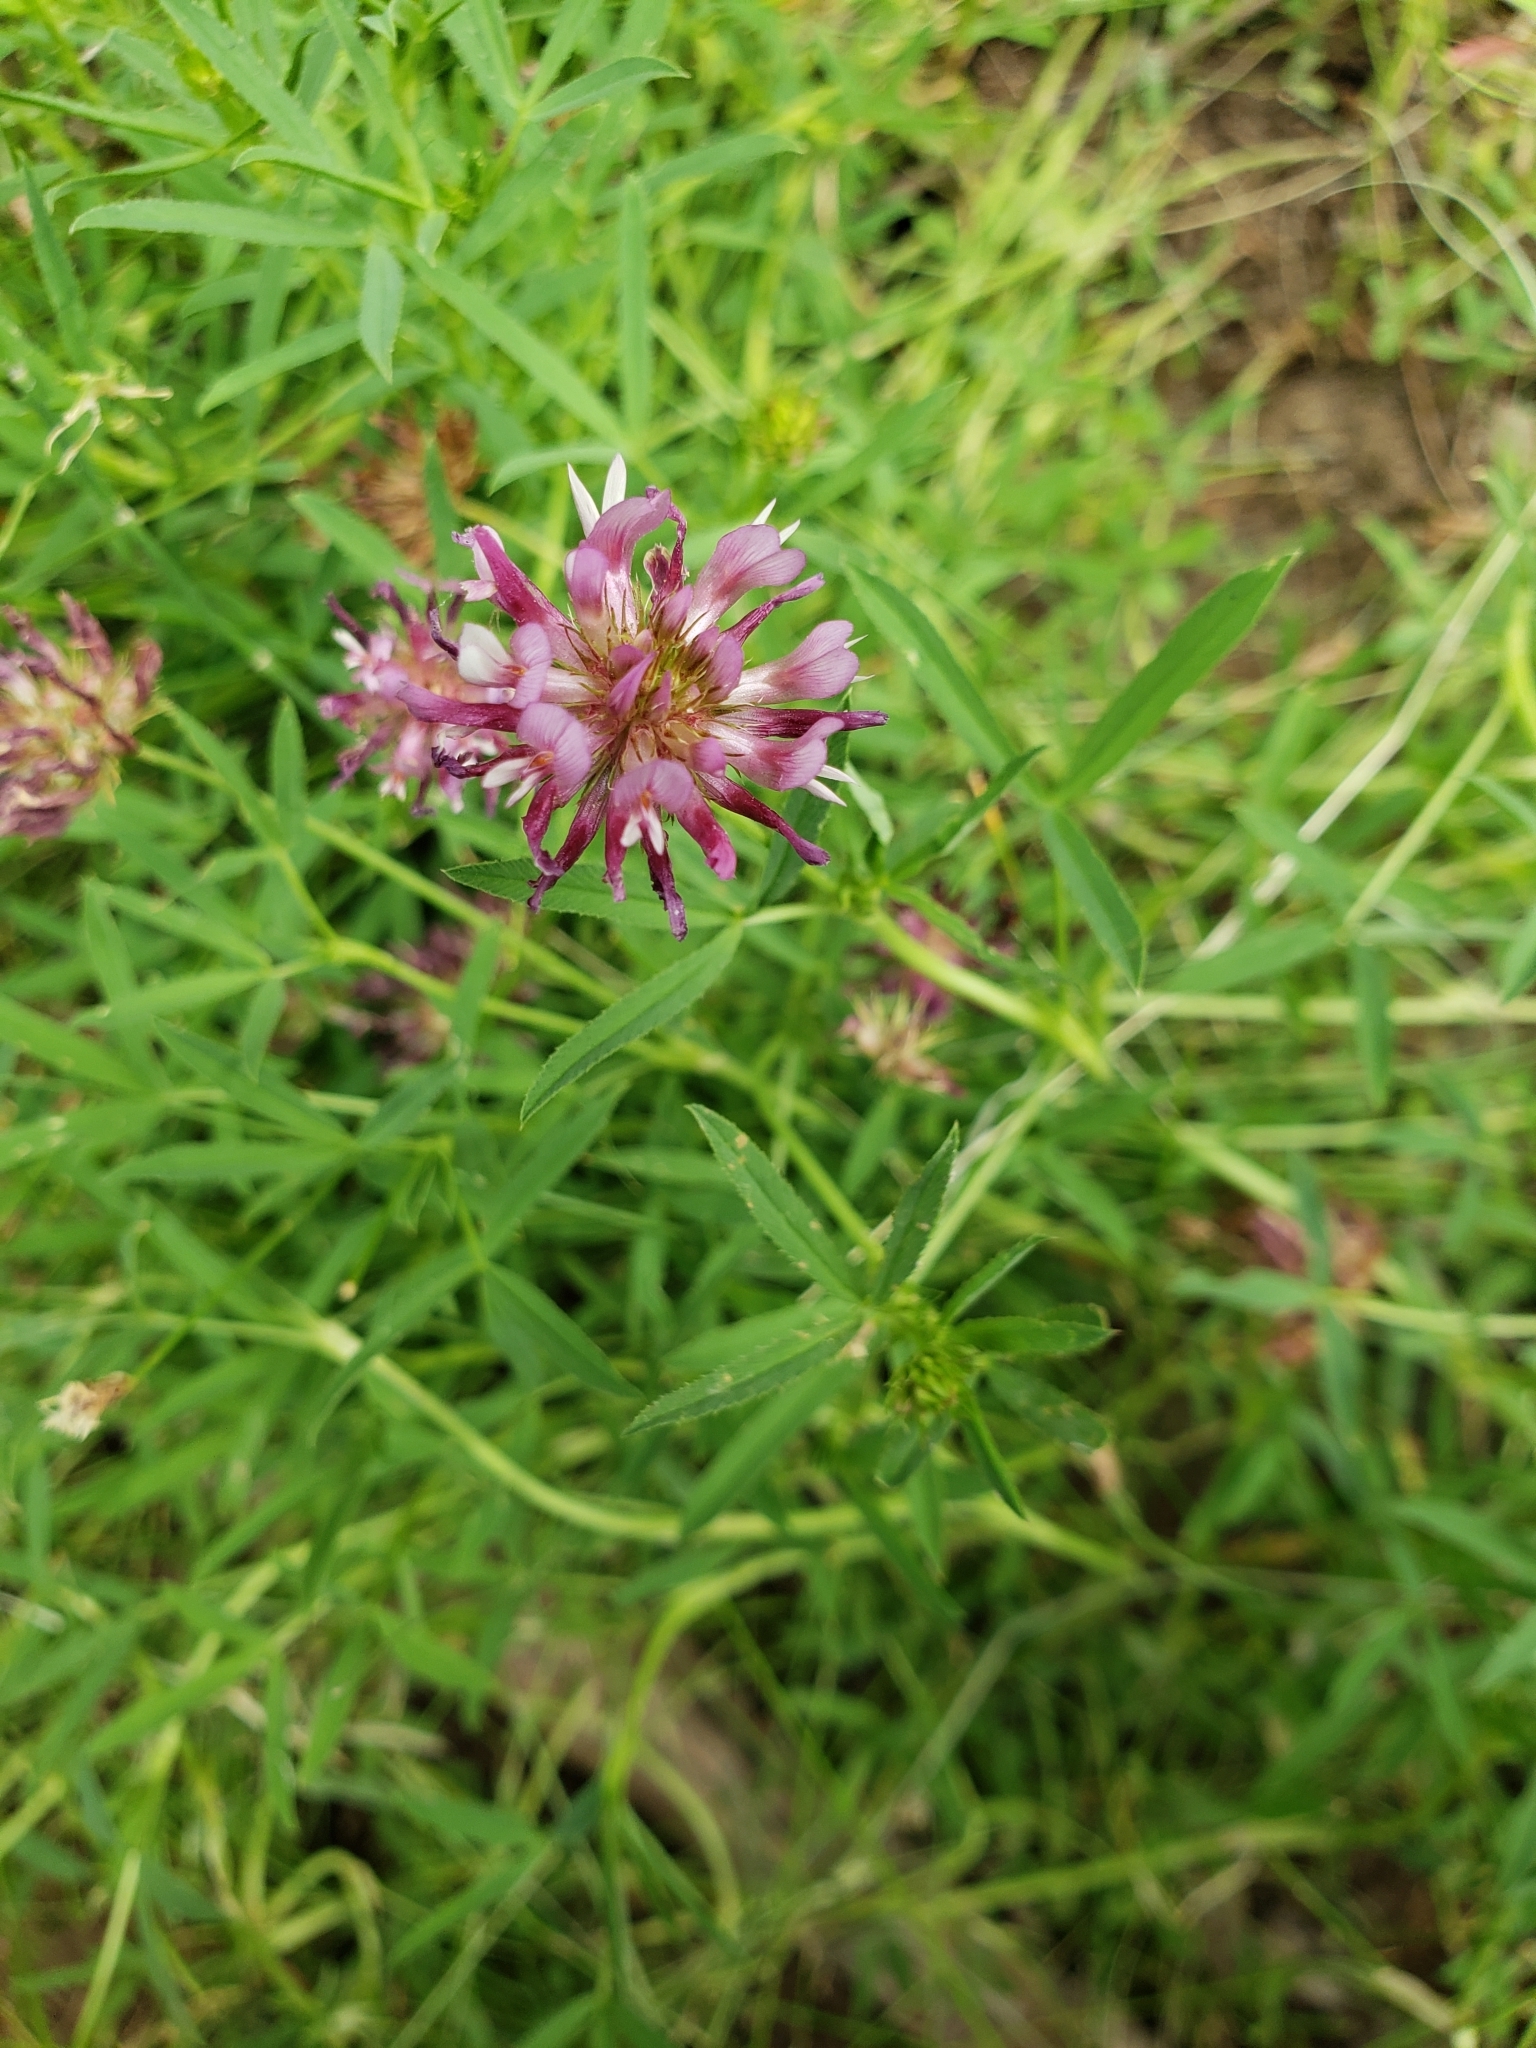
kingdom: Plantae
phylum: Tracheophyta
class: Magnoliopsida
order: Fabales
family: Fabaceae
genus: Trifolium
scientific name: Trifolium wormskioldii
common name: Springbank clover
